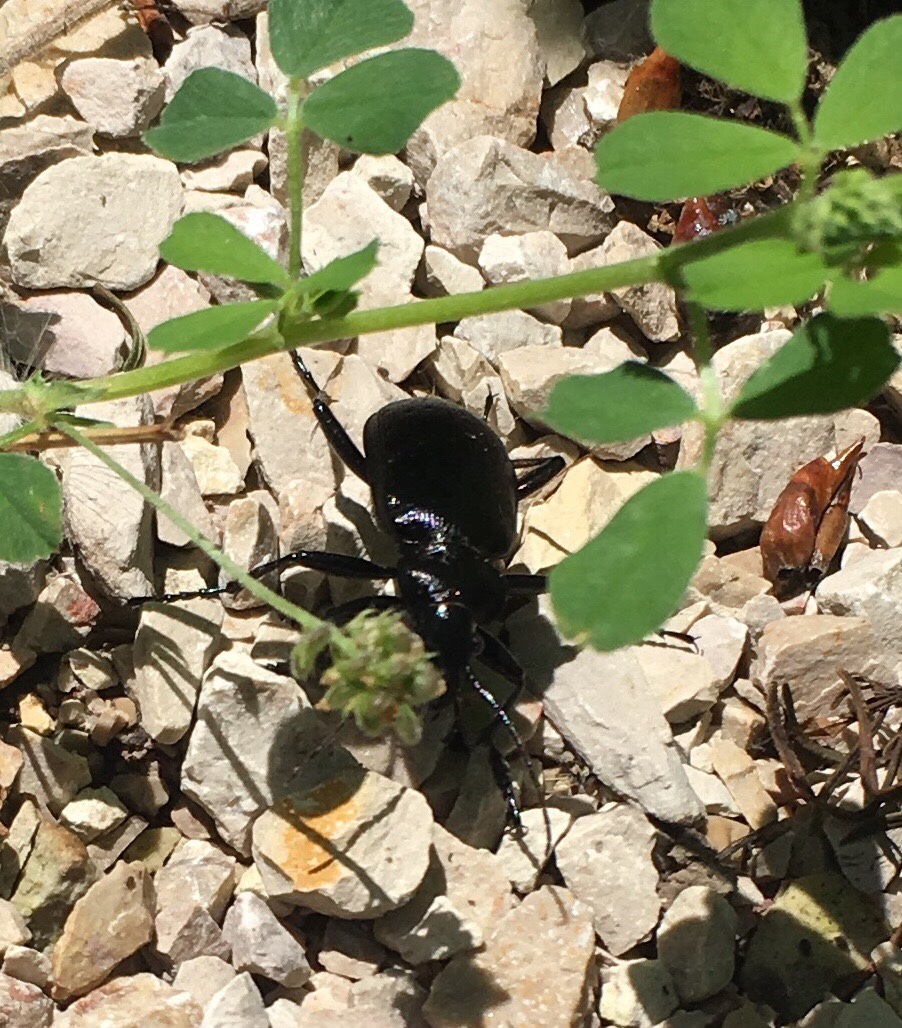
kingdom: Animalia
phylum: Arthropoda
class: Insecta
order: Coleoptera
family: Carabidae
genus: Calosoma
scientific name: Calosoma frigidum
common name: Cold-country caterpillar hunter
